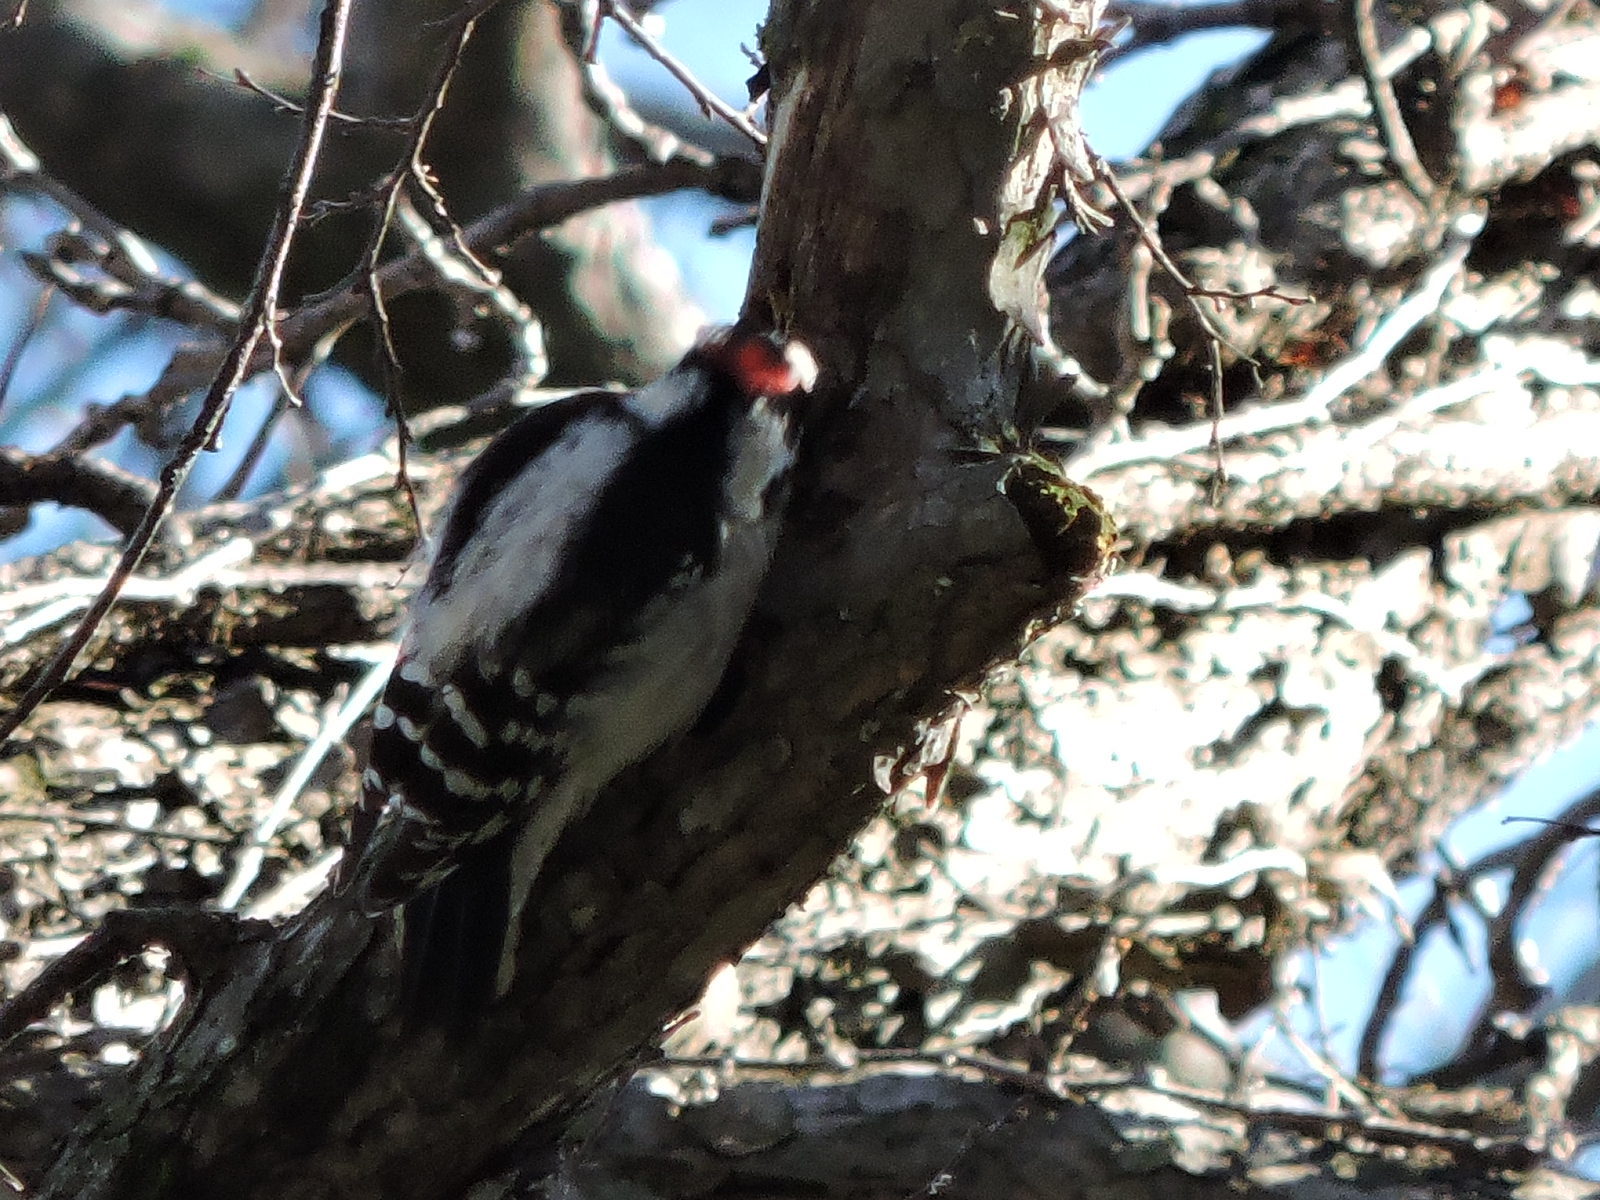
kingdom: Animalia
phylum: Chordata
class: Aves
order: Piciformes
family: Picidae
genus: Dryobates
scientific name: Dryobates pubescens
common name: Downy woodpecker
